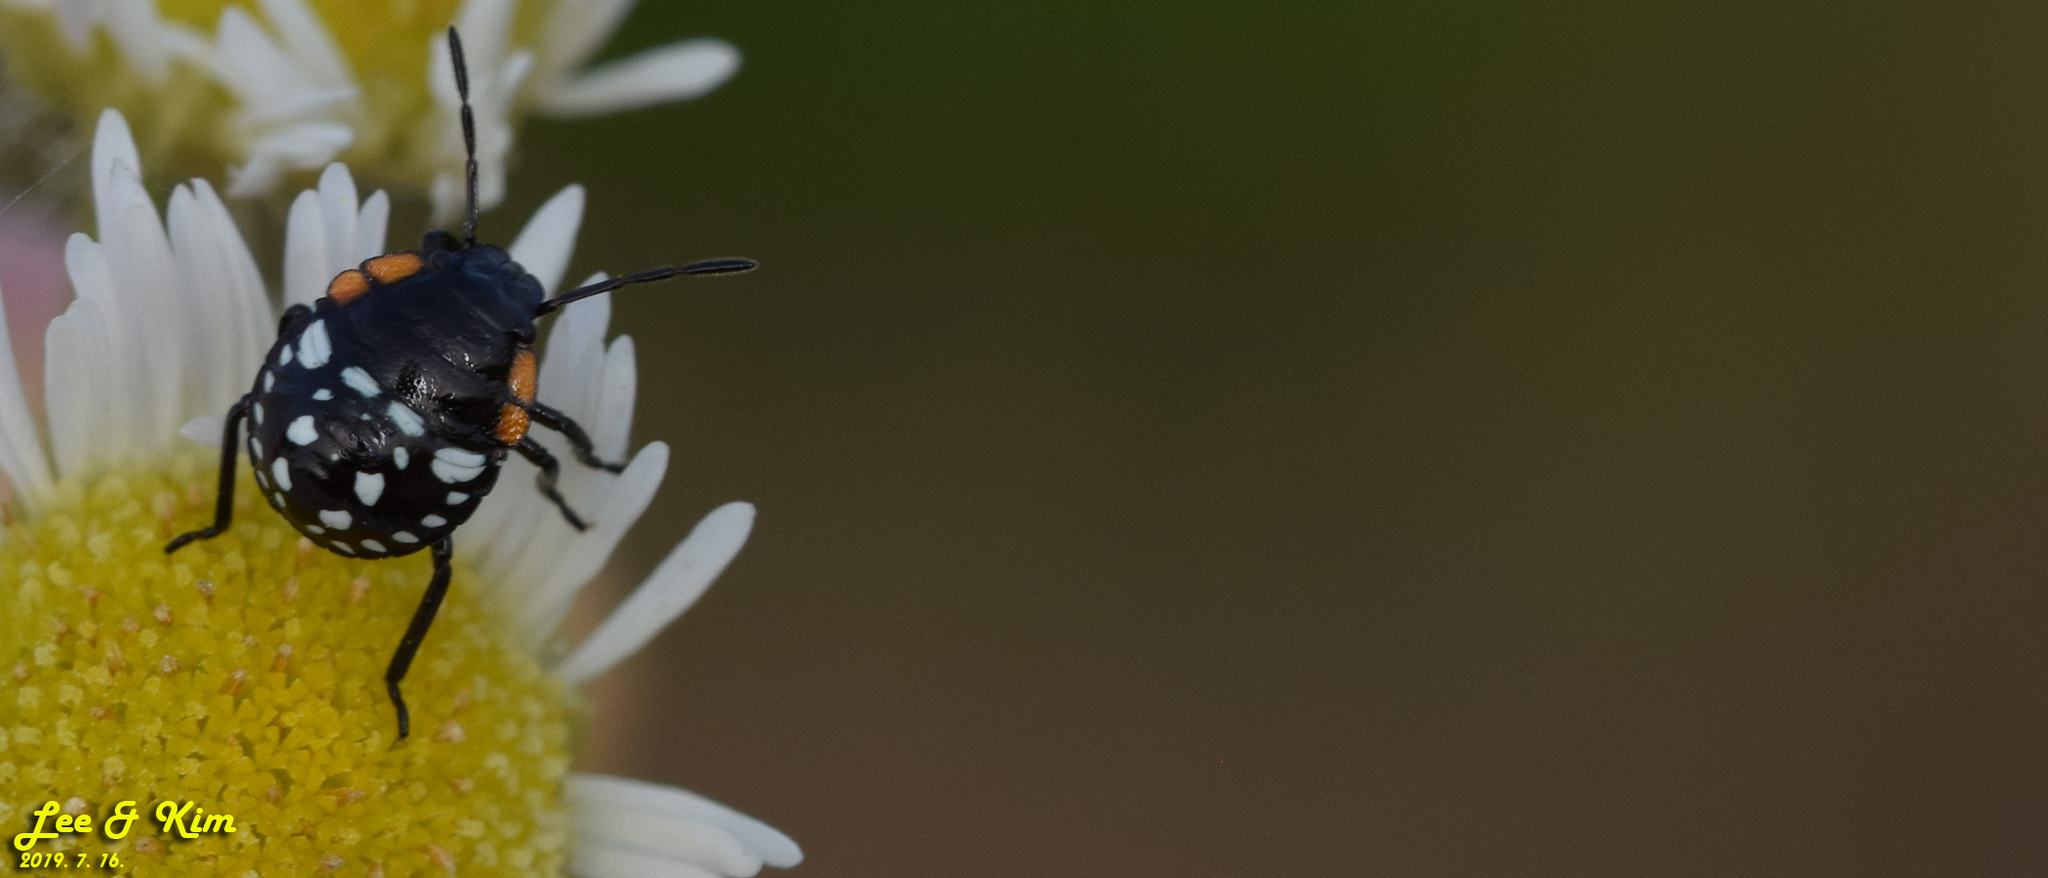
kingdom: Animalia
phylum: Arthropoda
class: Insecta
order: Hemiptera
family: Pentatomidae
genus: Nezara
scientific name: Nezara antennata
